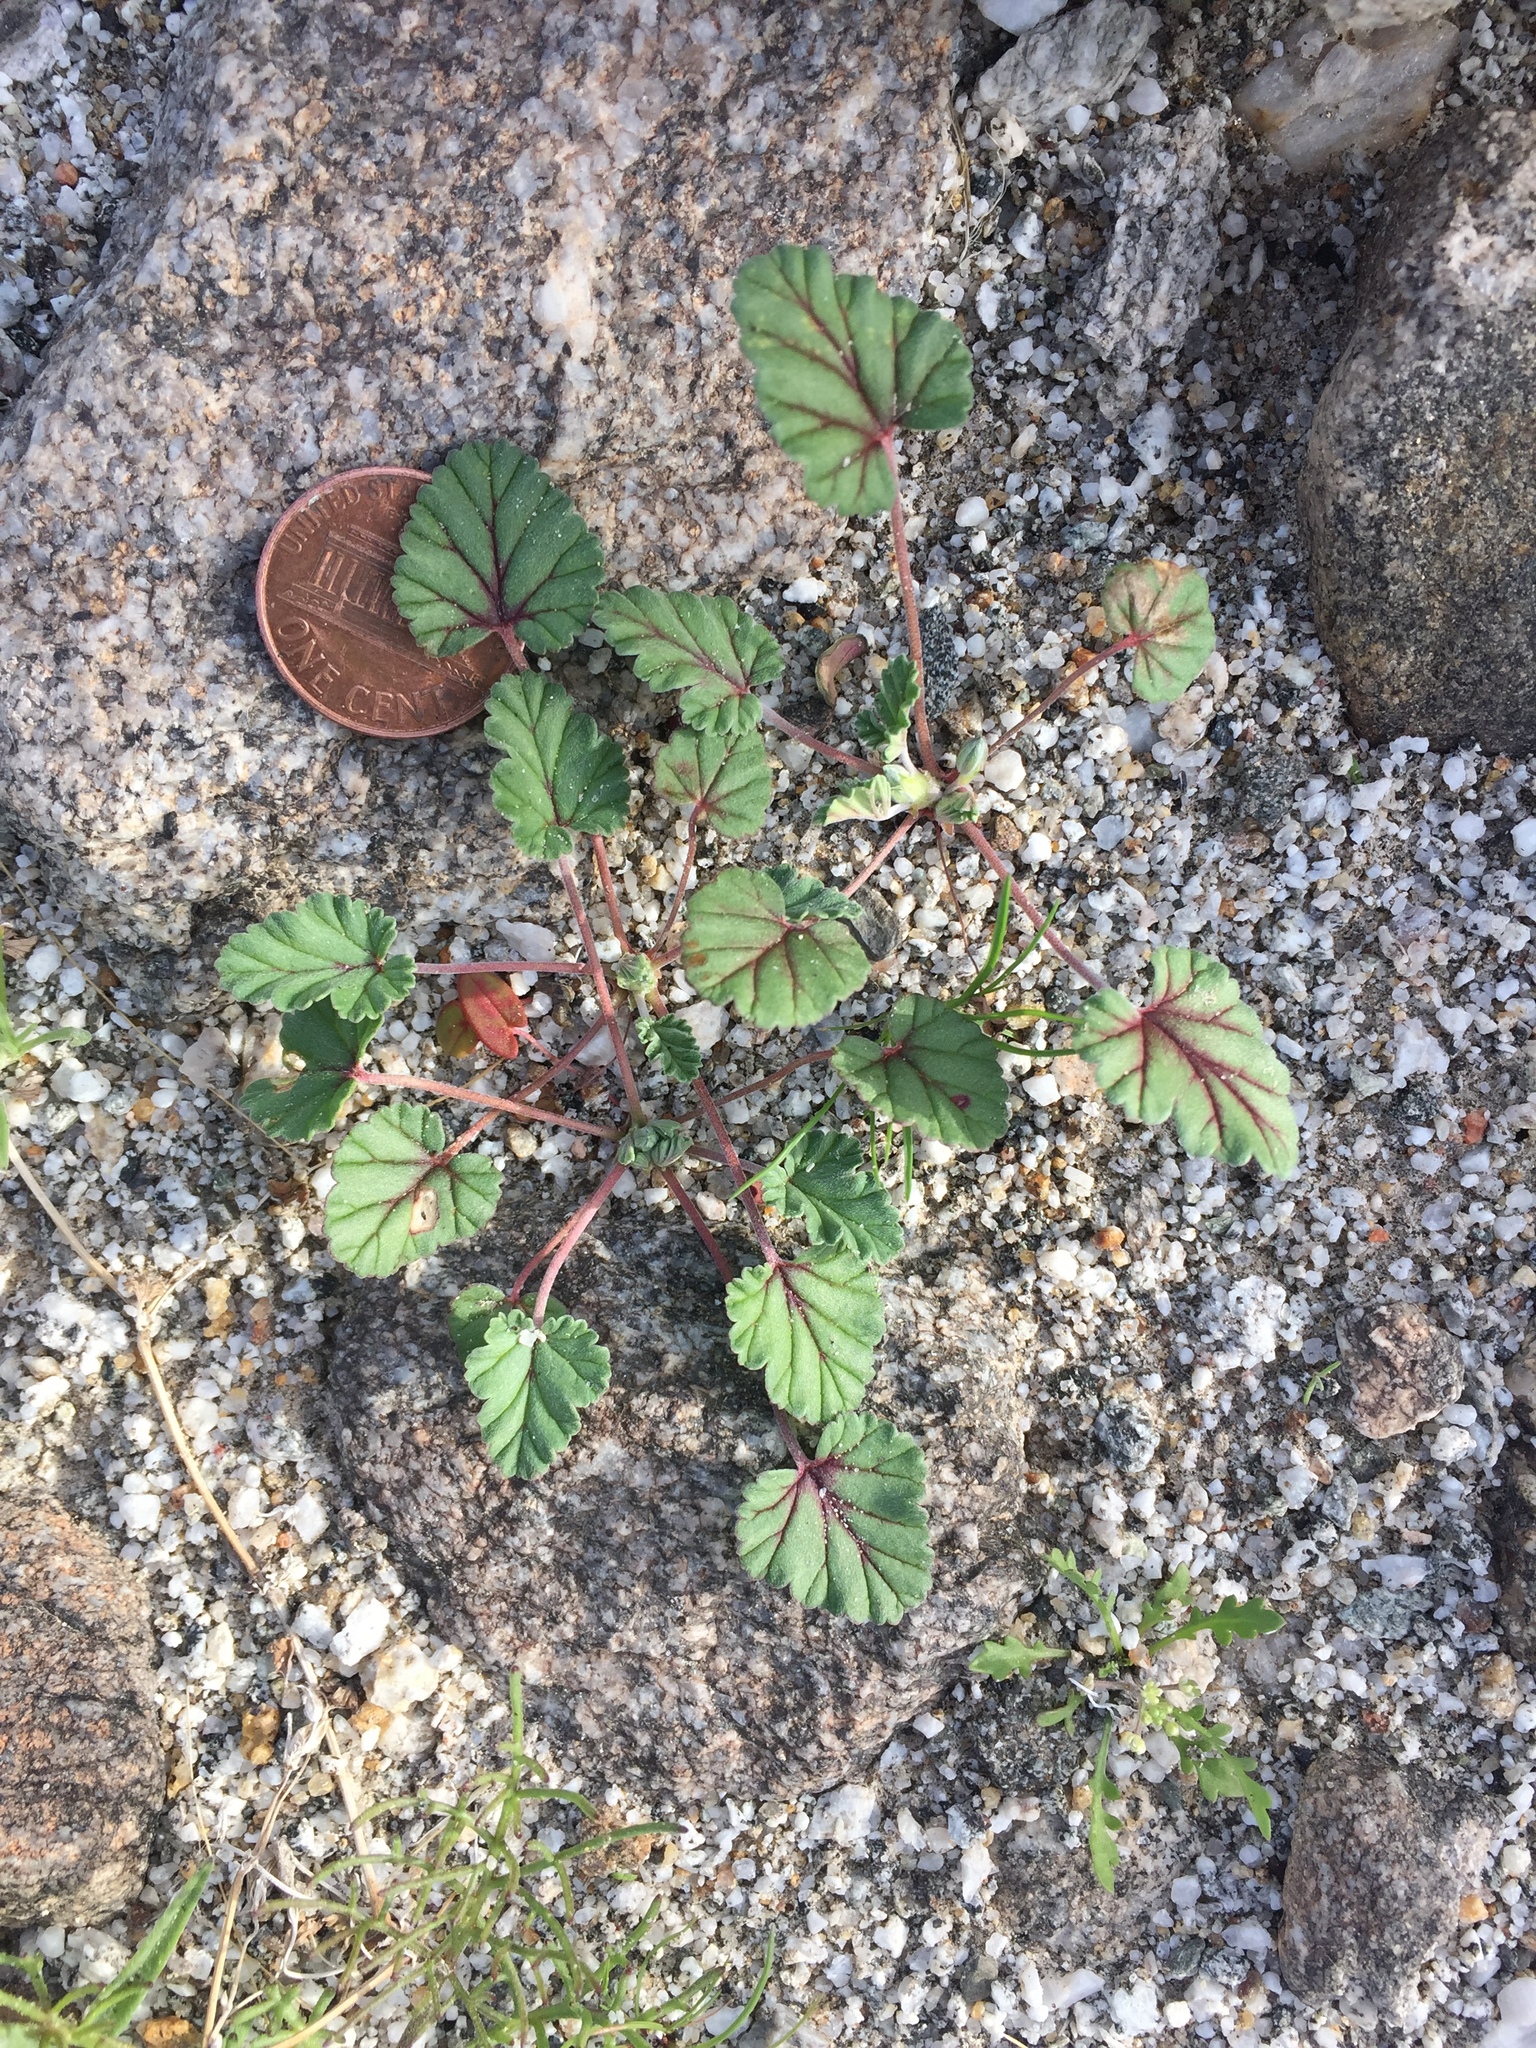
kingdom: Plantae
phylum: Tracheophyta
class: Magnoliopsida
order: Geraniales
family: Geraniaceae
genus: Erodium
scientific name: Erodium texanum
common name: Texas stork's-bill
